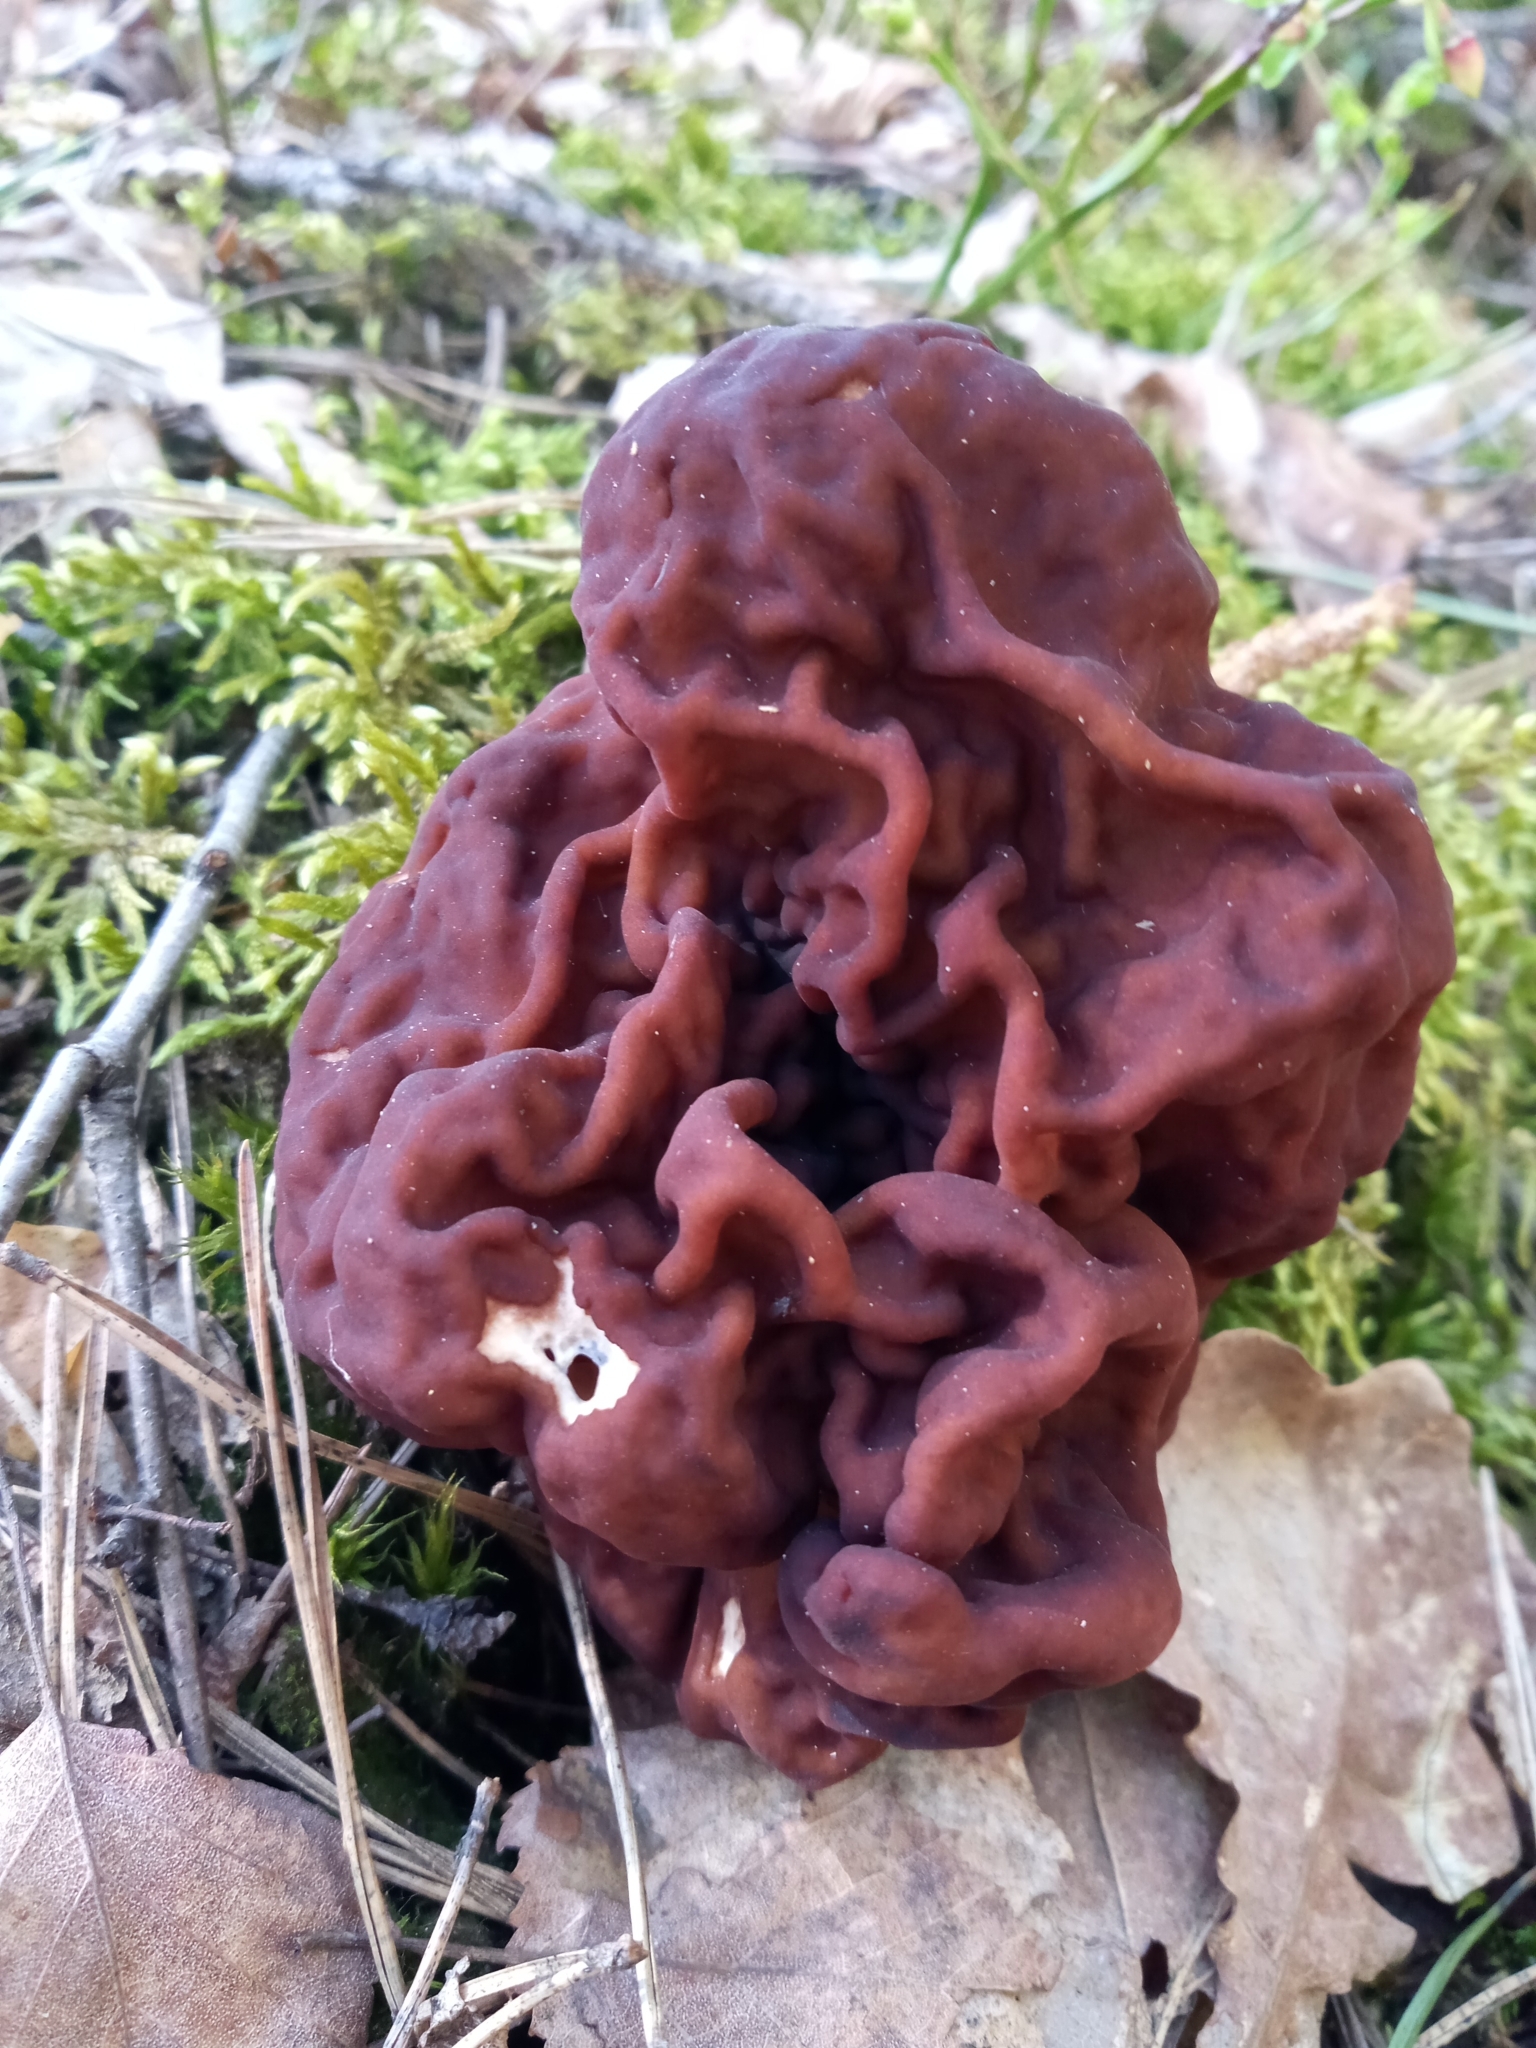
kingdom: Fungi
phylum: Ascomycota
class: Pezizomycetes
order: Pezizales
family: Discinaceae
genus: Gyromitra
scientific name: Gyromitra esculenta
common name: False morel
